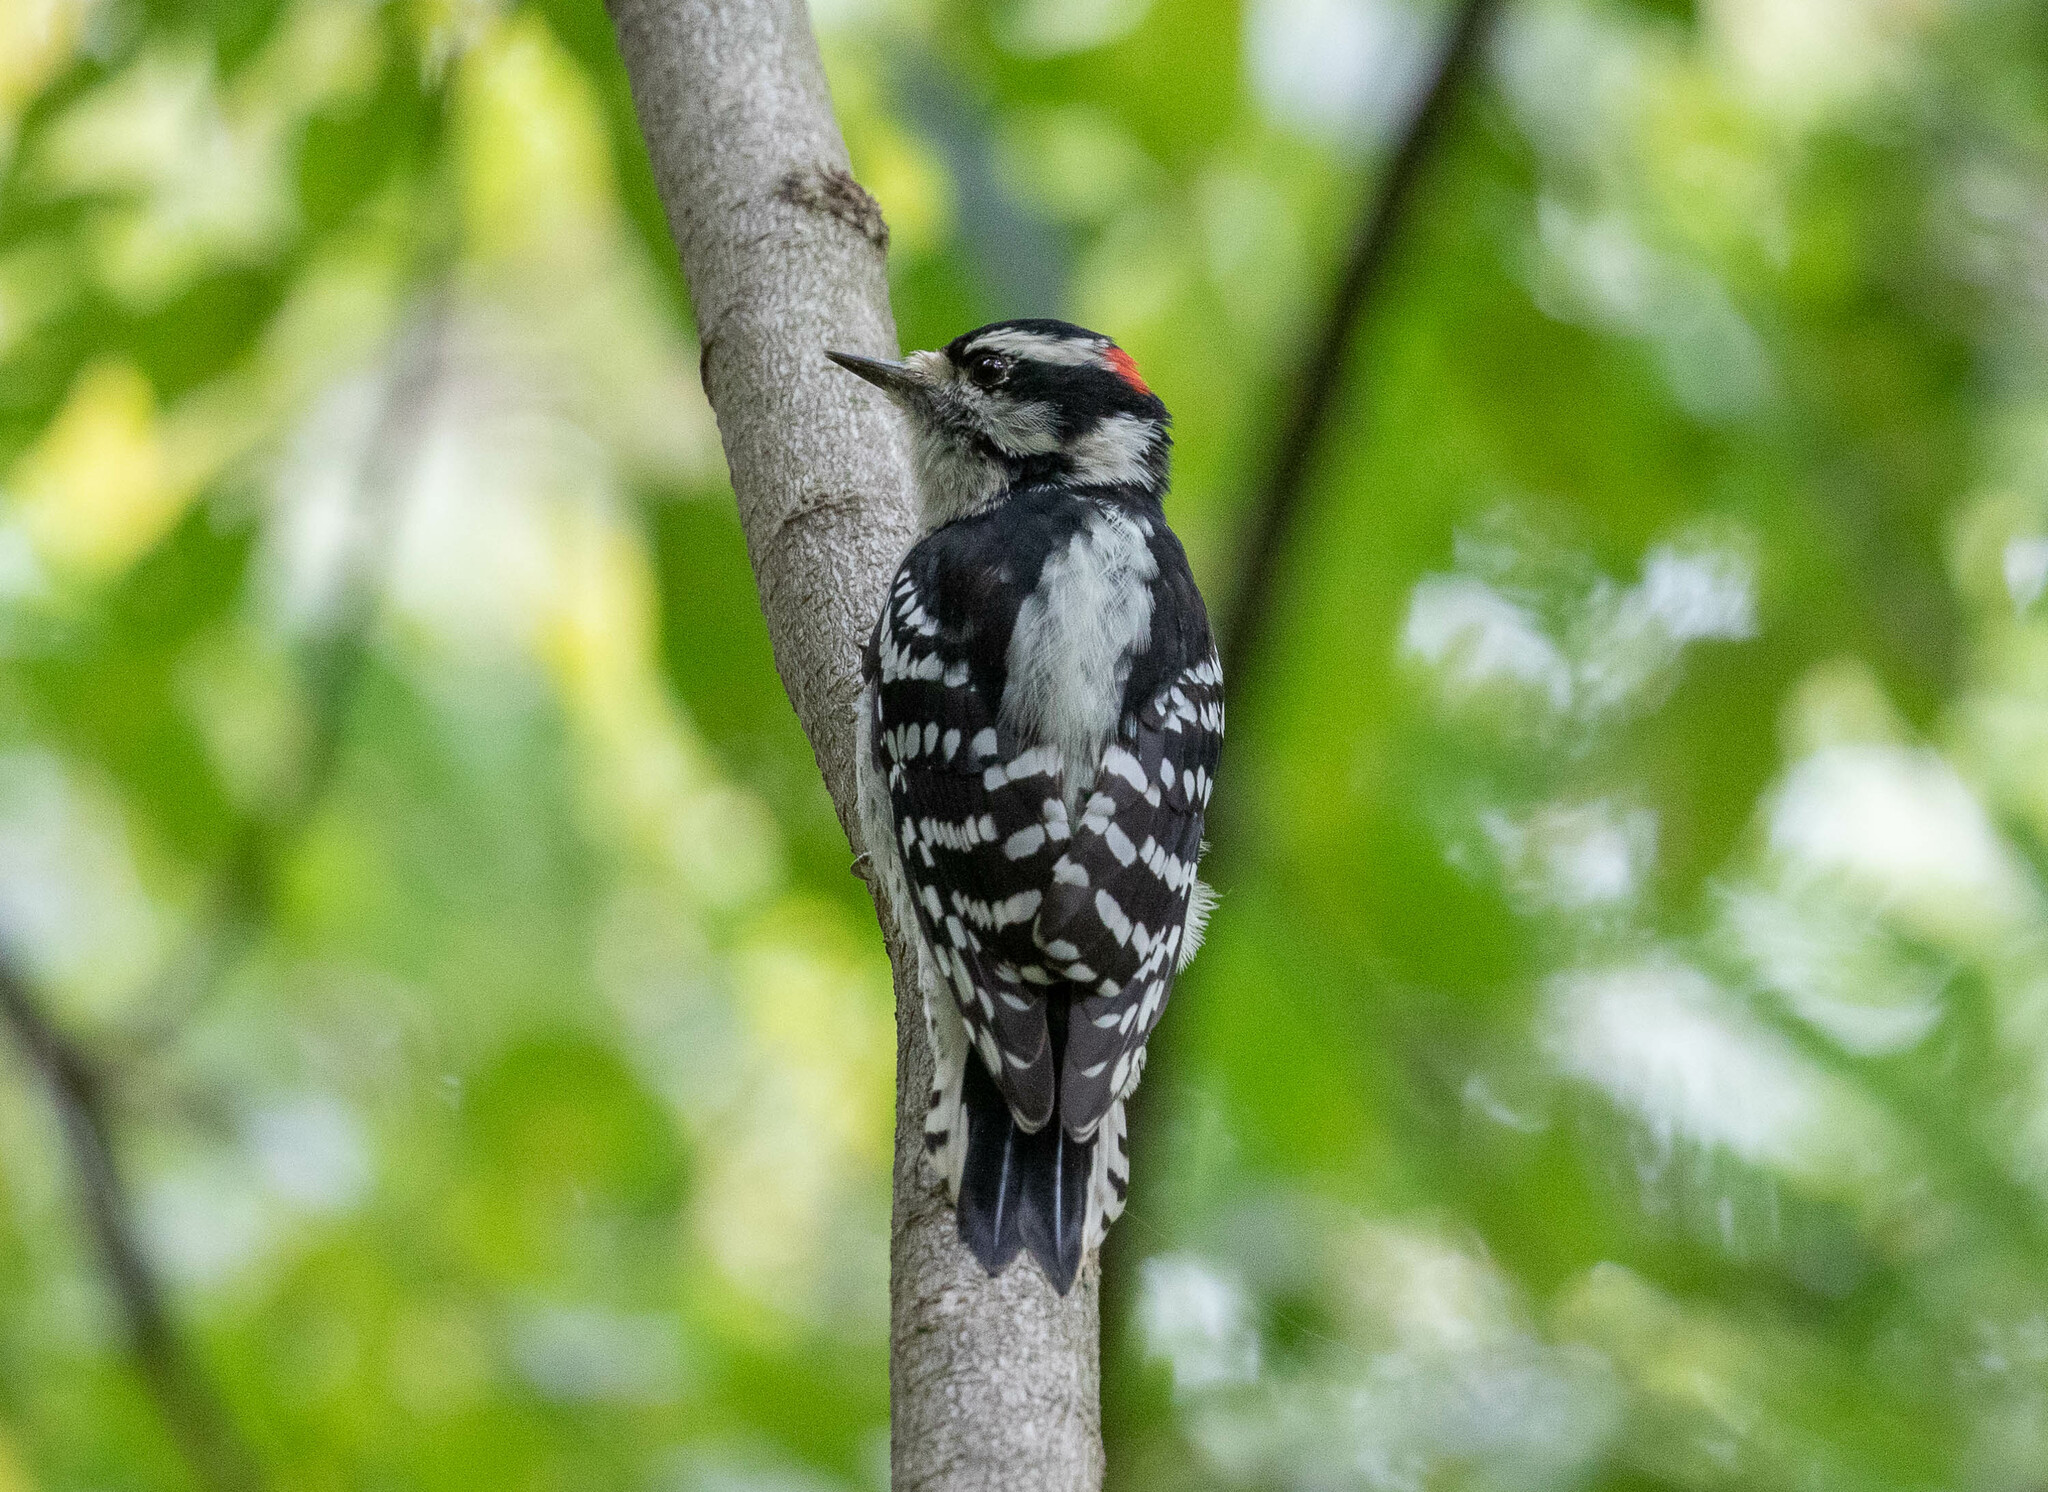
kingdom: Animalia
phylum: Chordata
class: Aves
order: Piciformes
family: Picidae
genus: Dryobates
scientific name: Dryobates pubescens
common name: Downy woodpecker
